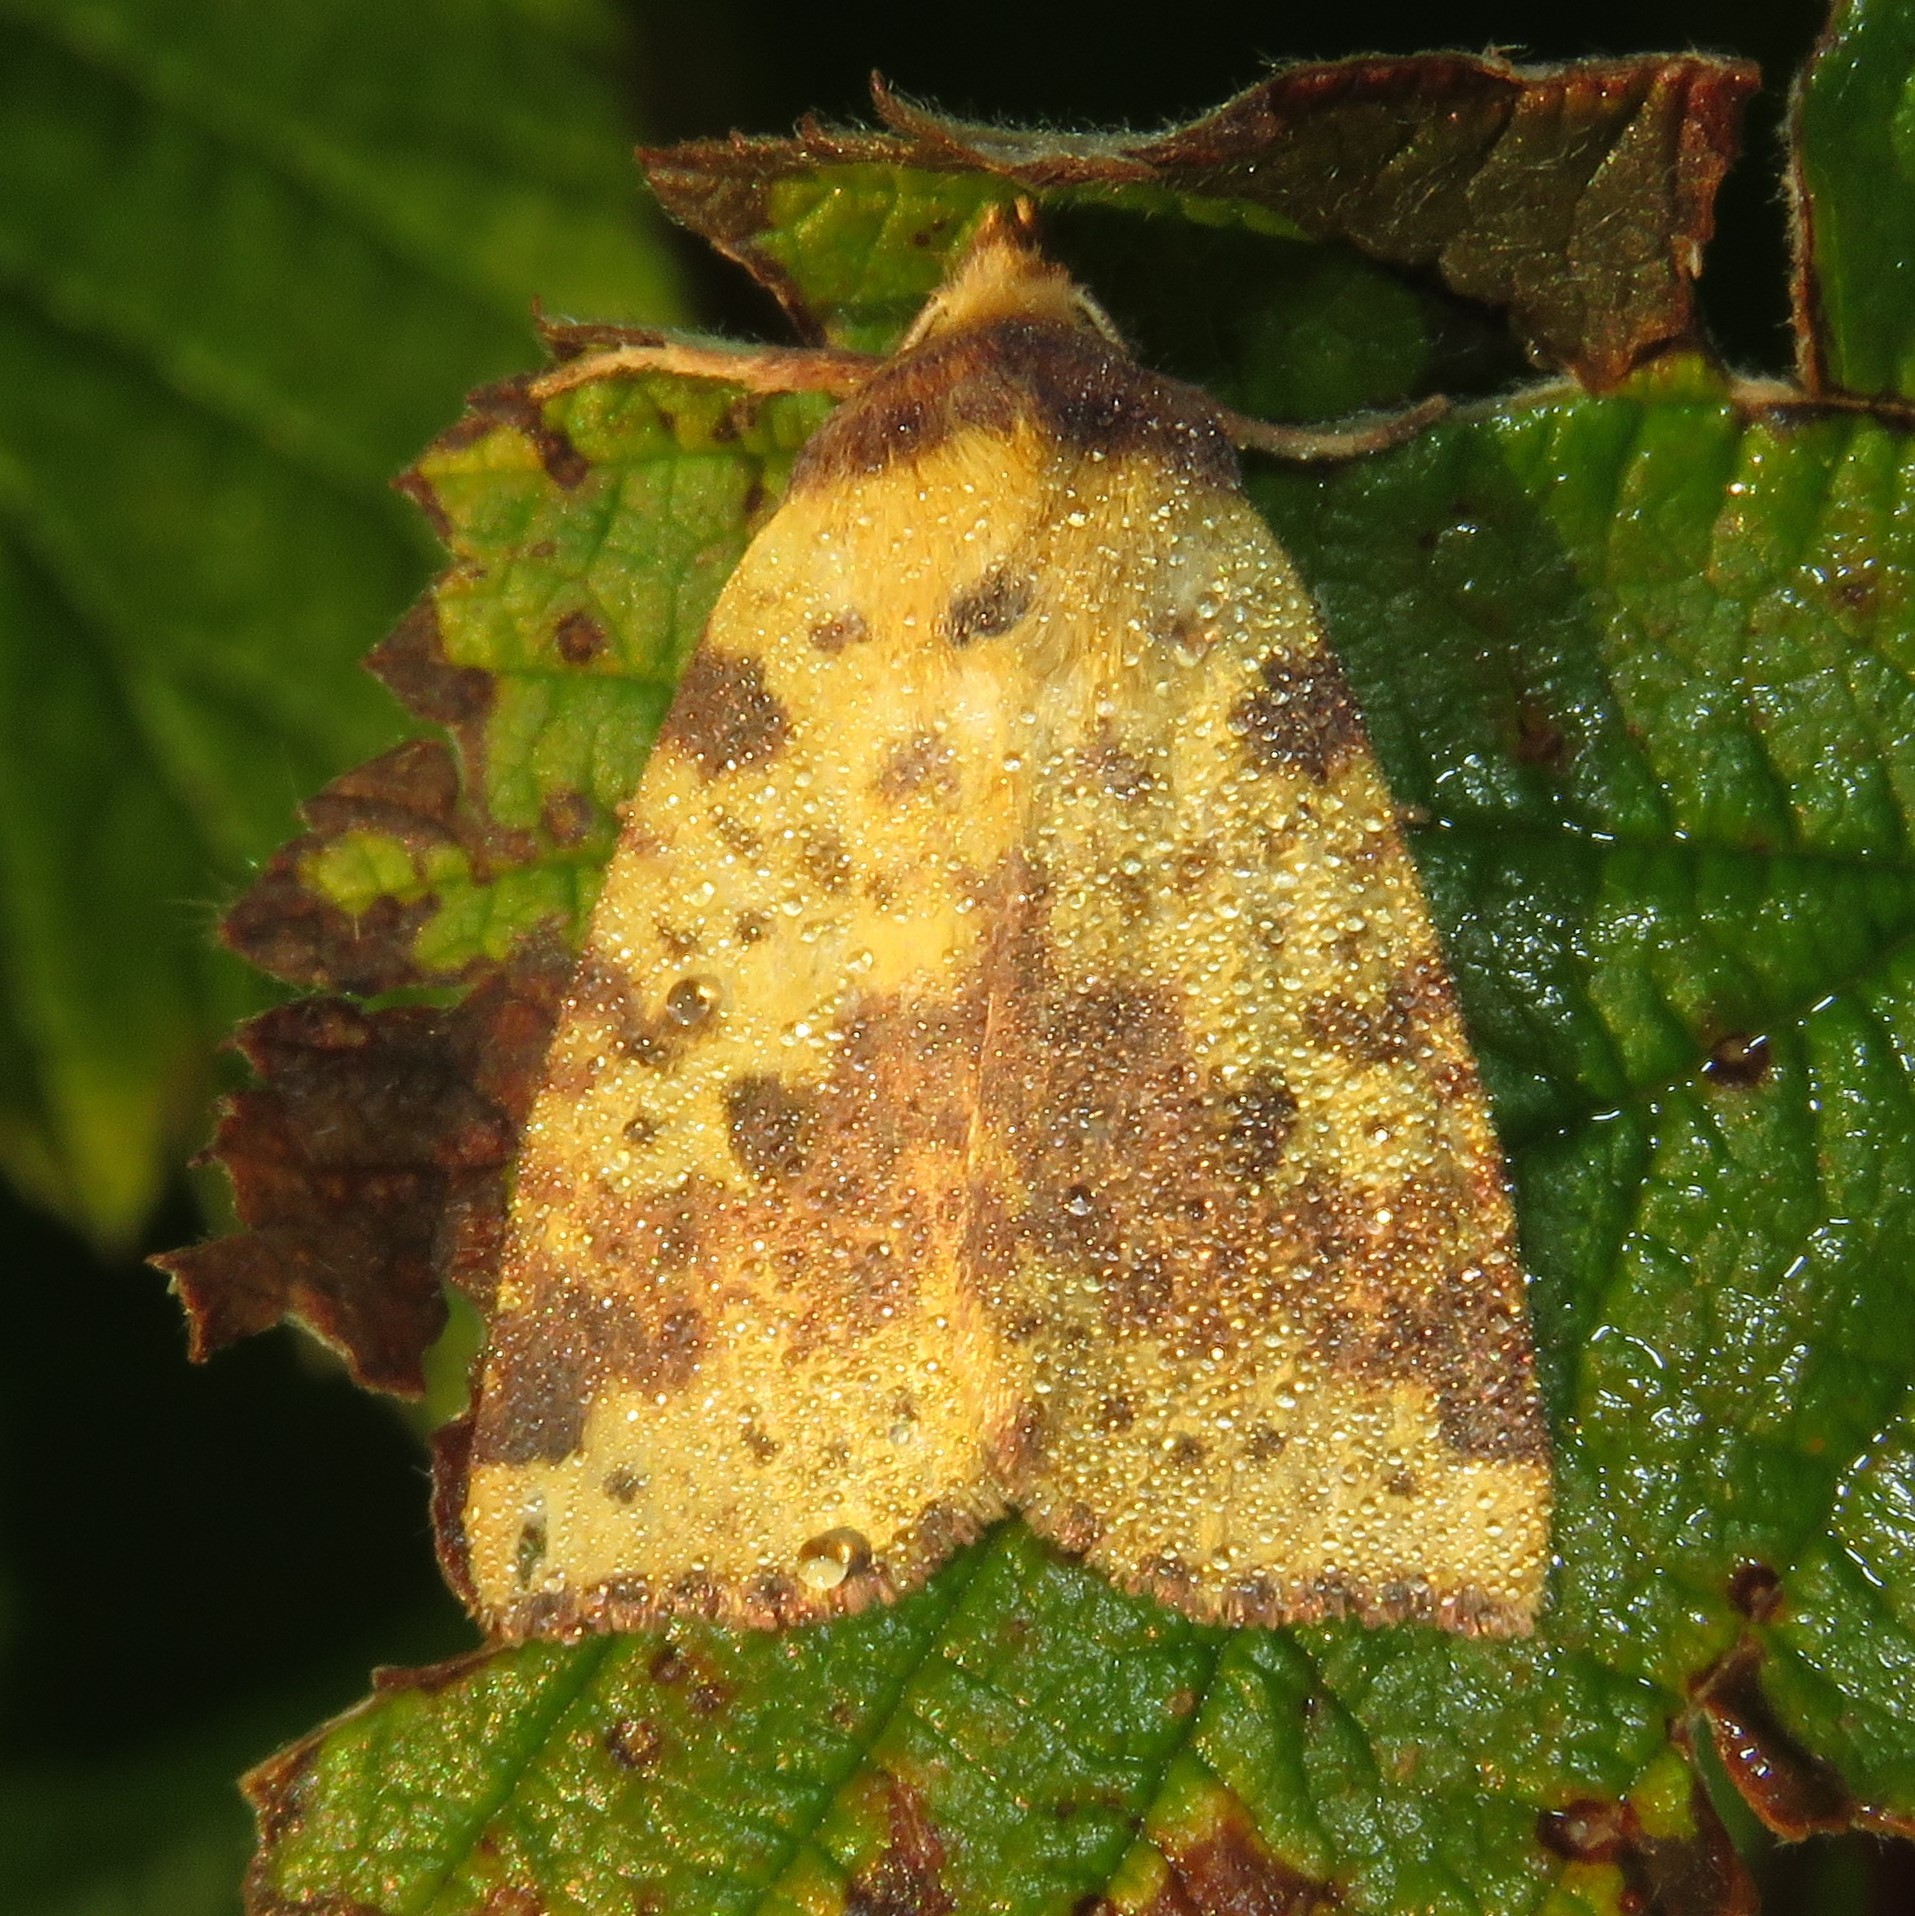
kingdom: Animalia
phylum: Arthropoda
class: Insecta
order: Lepidoptera
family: Noctuidae
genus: Xanthia
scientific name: Xanthia tatago
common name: Pink-banded sallow
